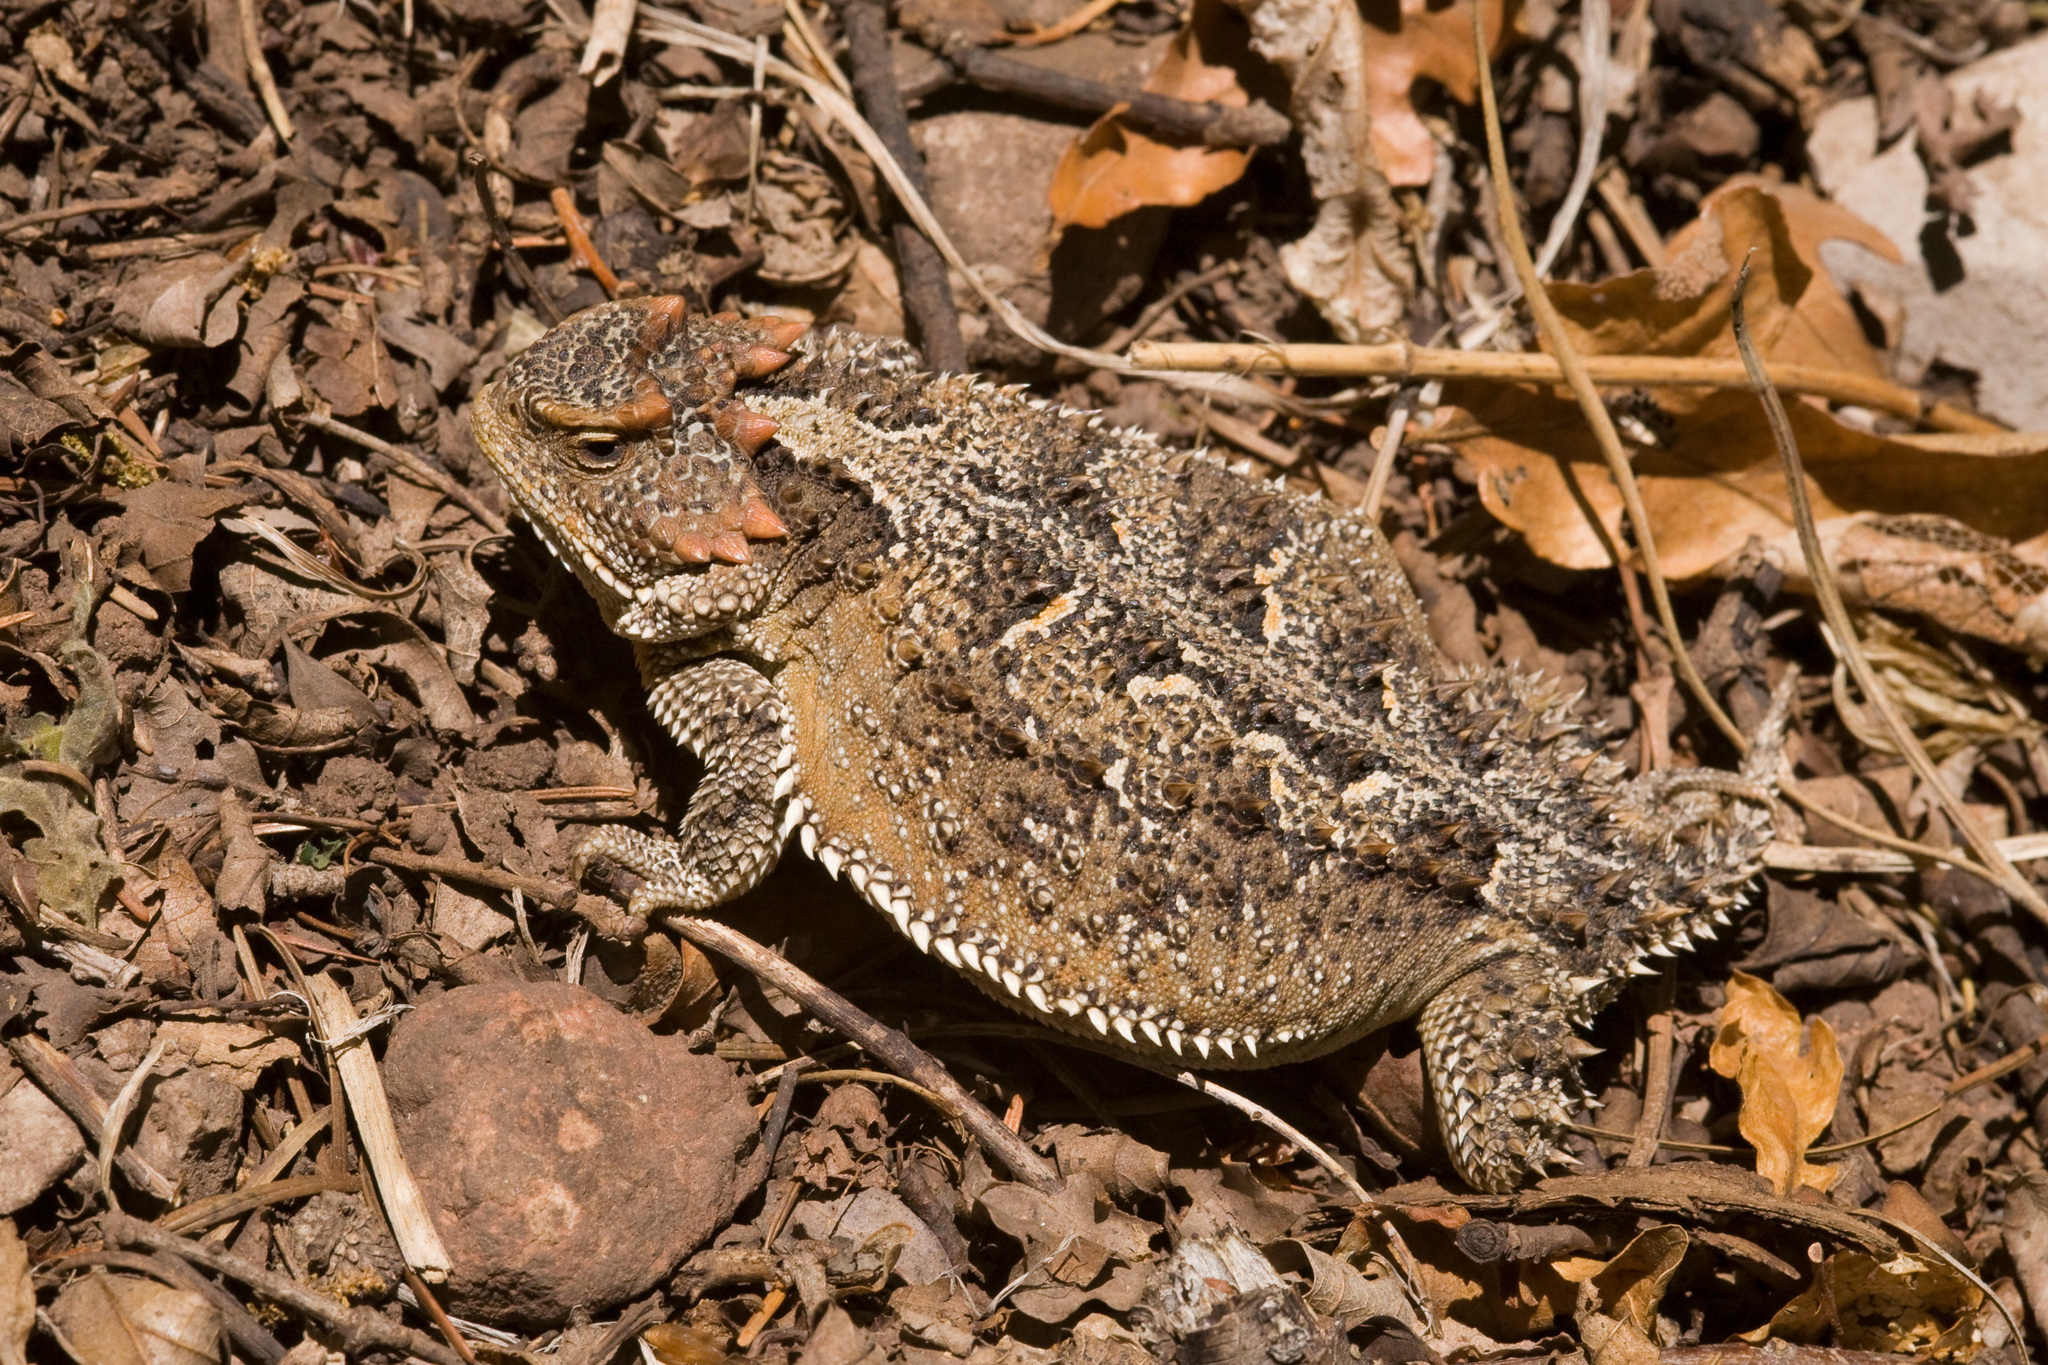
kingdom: Animalia
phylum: Chordata
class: Squamata
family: Phrynosomatidae
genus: Phrynosoma
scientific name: Phrynosoma hernandesi
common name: Greater short-horned lizard
